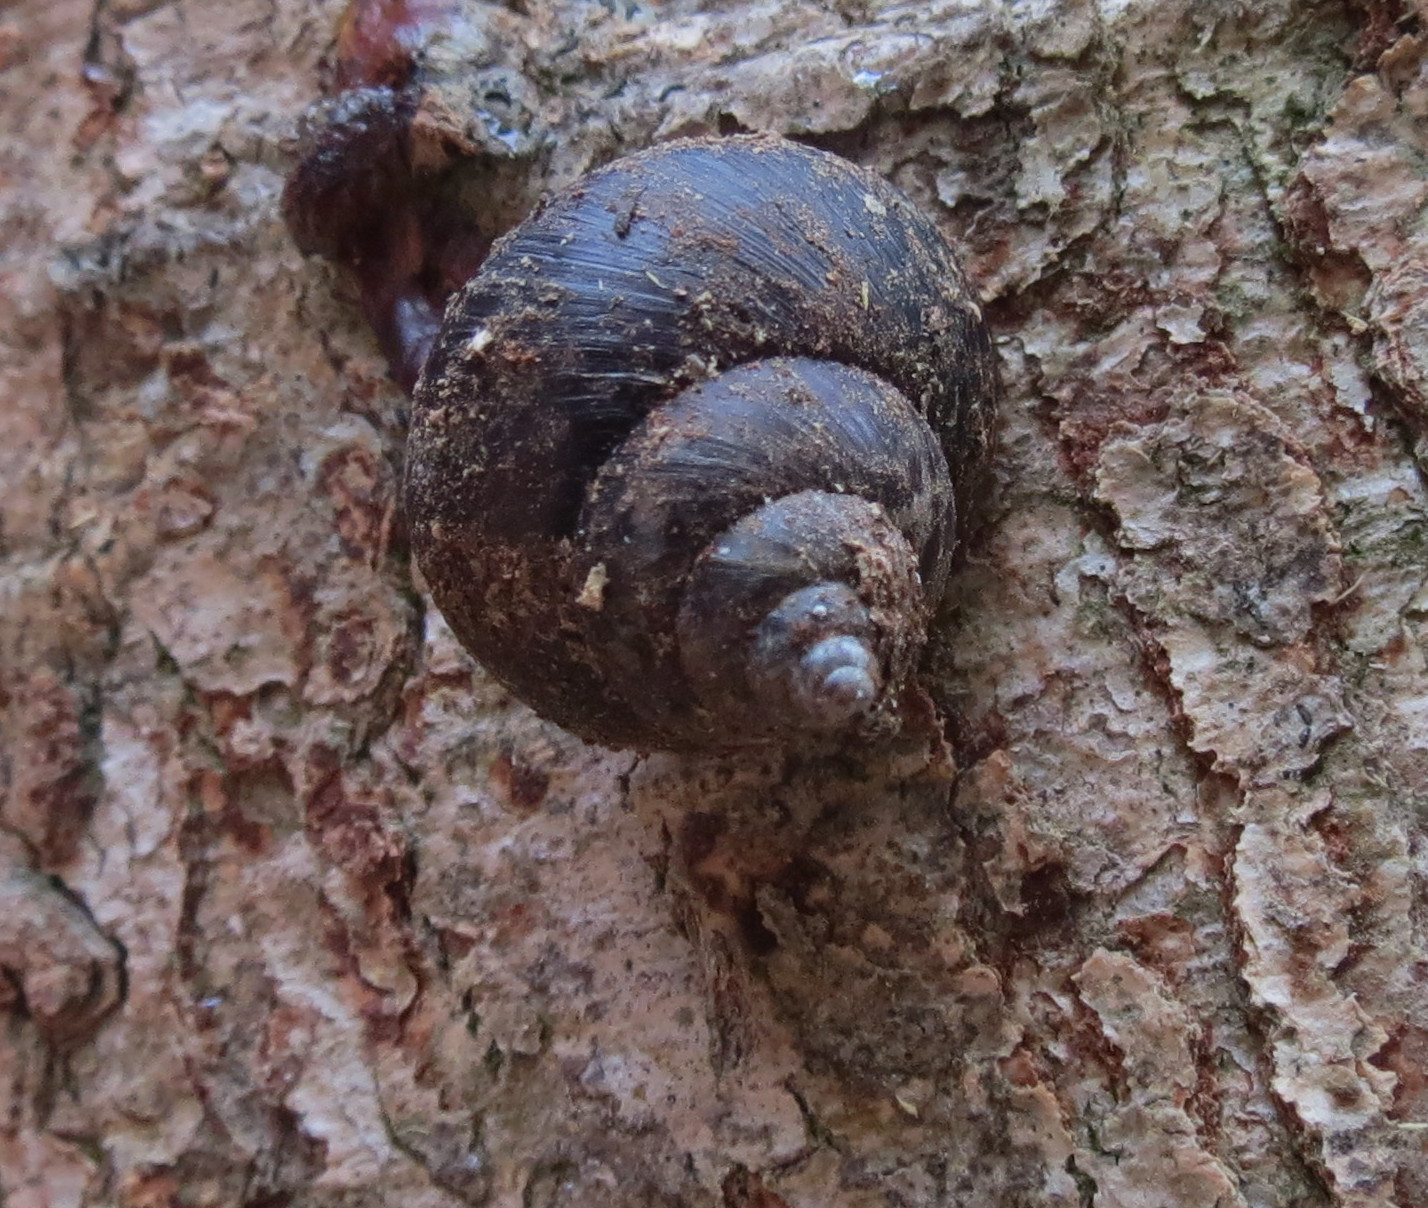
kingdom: Animalia
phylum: Mollusca
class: Gastropoda
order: Stylommatophora
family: Cerastidae
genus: Gittenedouardia
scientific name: Gittenedouardia spadicea
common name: Chestnut bark snail
